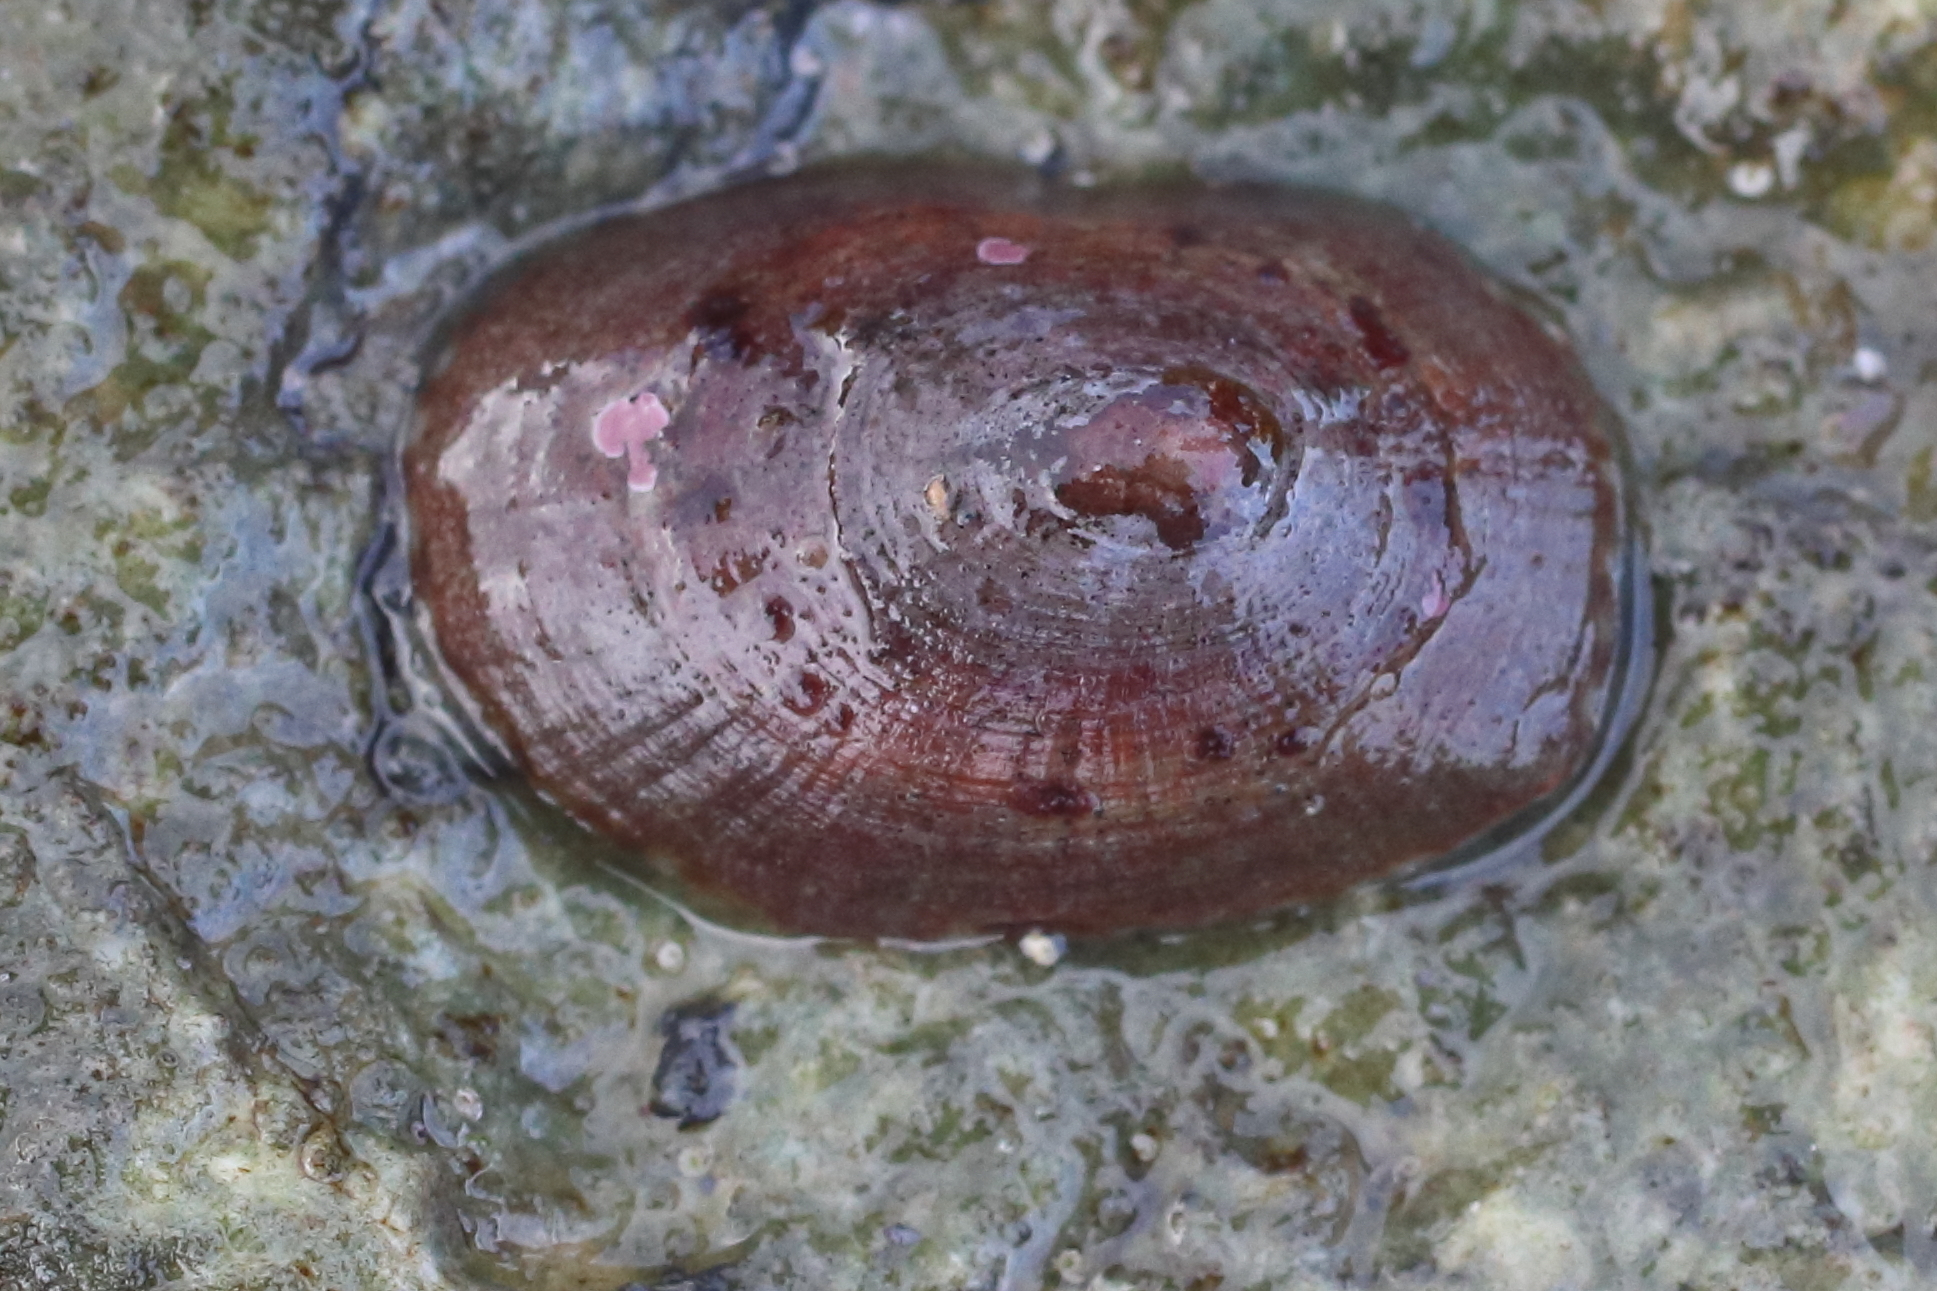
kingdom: Animalia
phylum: Mollusca
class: Gastropoda
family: Lottiidae
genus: Lottia
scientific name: Lottia instabilis
